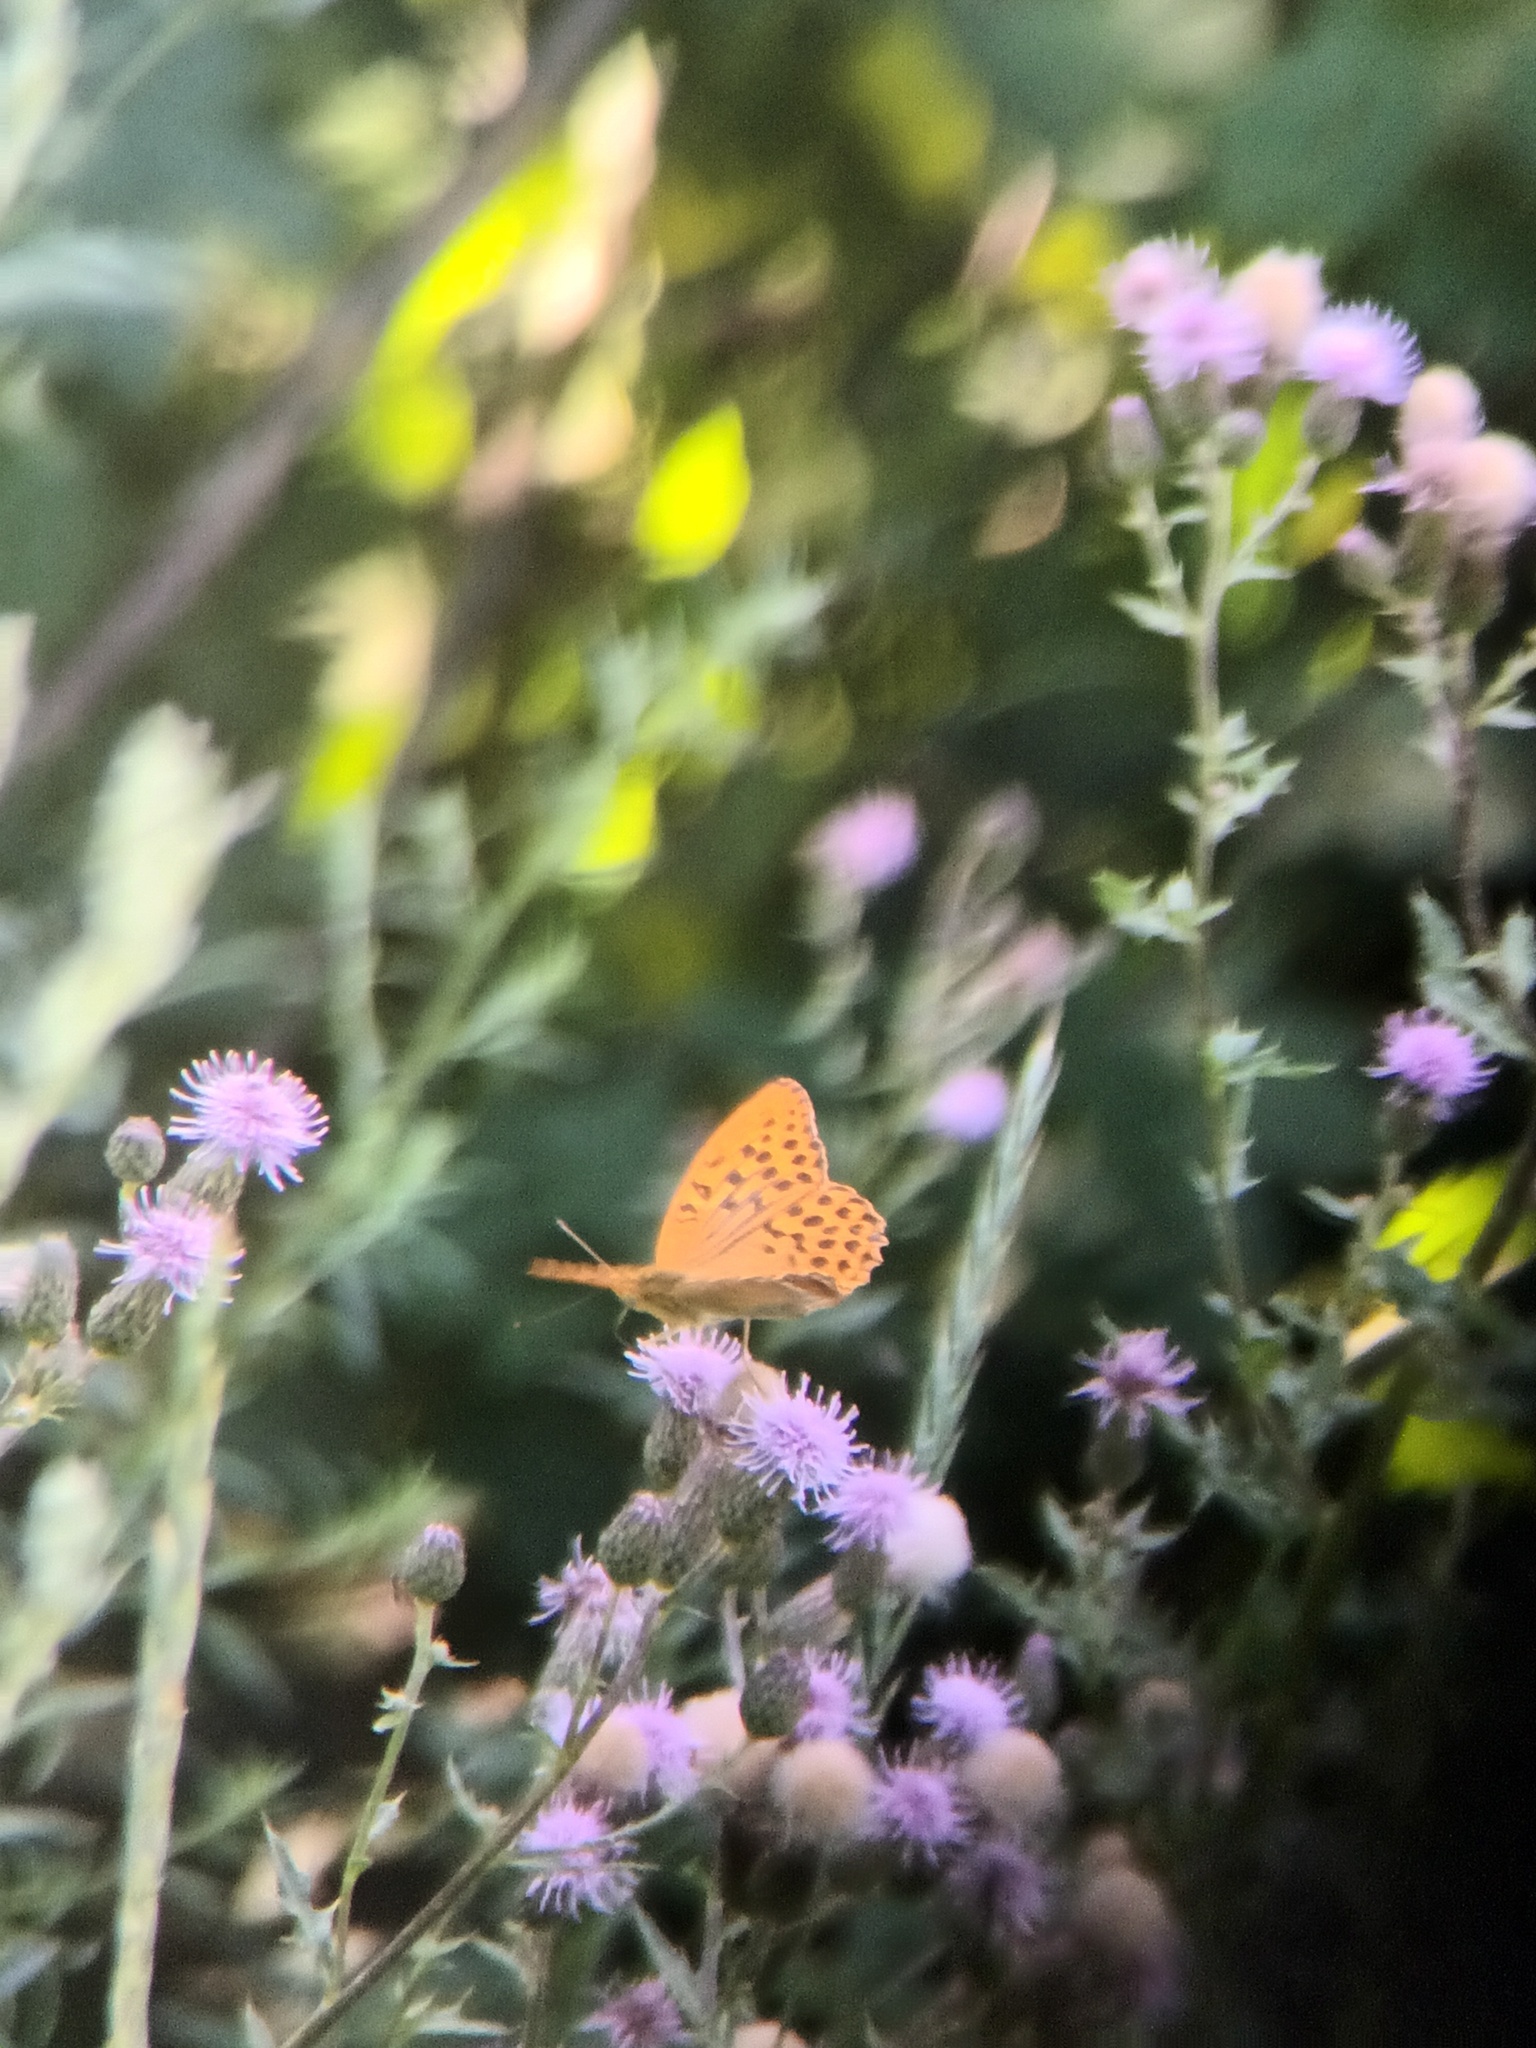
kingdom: Animalia
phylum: Arthropoda
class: Insecta
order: Lepidoptera
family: Nymphalidae
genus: Argynnis
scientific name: Argynnis paphia
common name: Silver-washed fritillary
